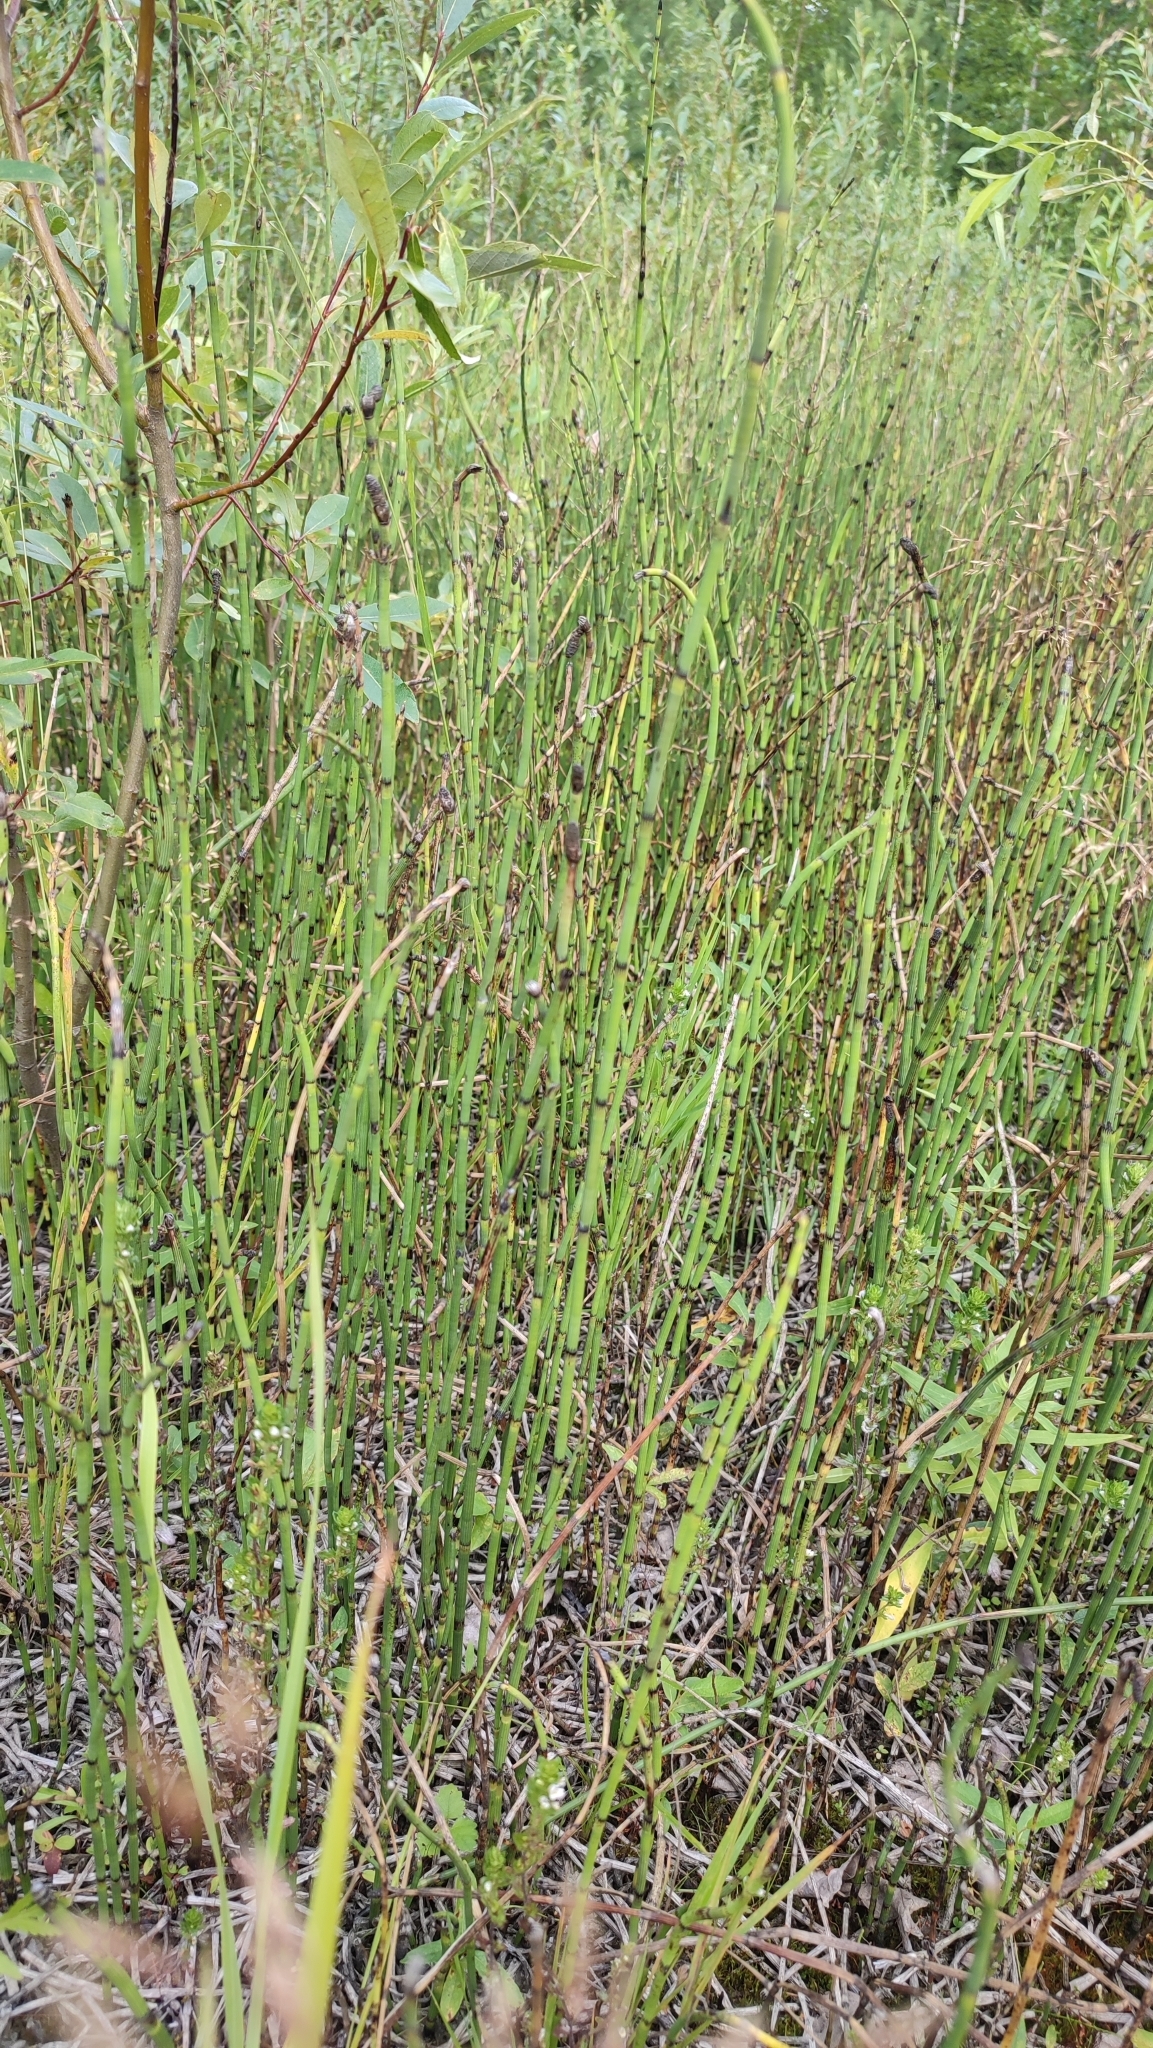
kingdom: Plantae
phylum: Tracheophyta
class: Polypodiopsida
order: Equisetales
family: Equisetaceae
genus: Equisetum
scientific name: Equisetum fluviatile
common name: Water horsetail
